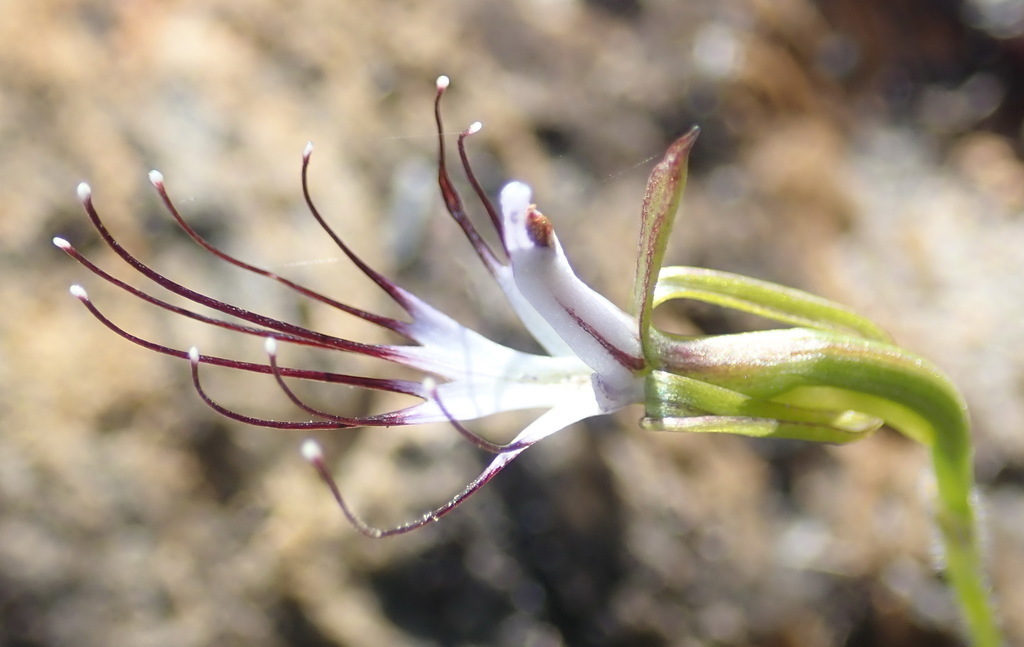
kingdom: Plantae
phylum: Tracheophyta
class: Liliopsida
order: Asparagales
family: Orchidaceae
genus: Holothrix
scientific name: Holothrix etheliae
